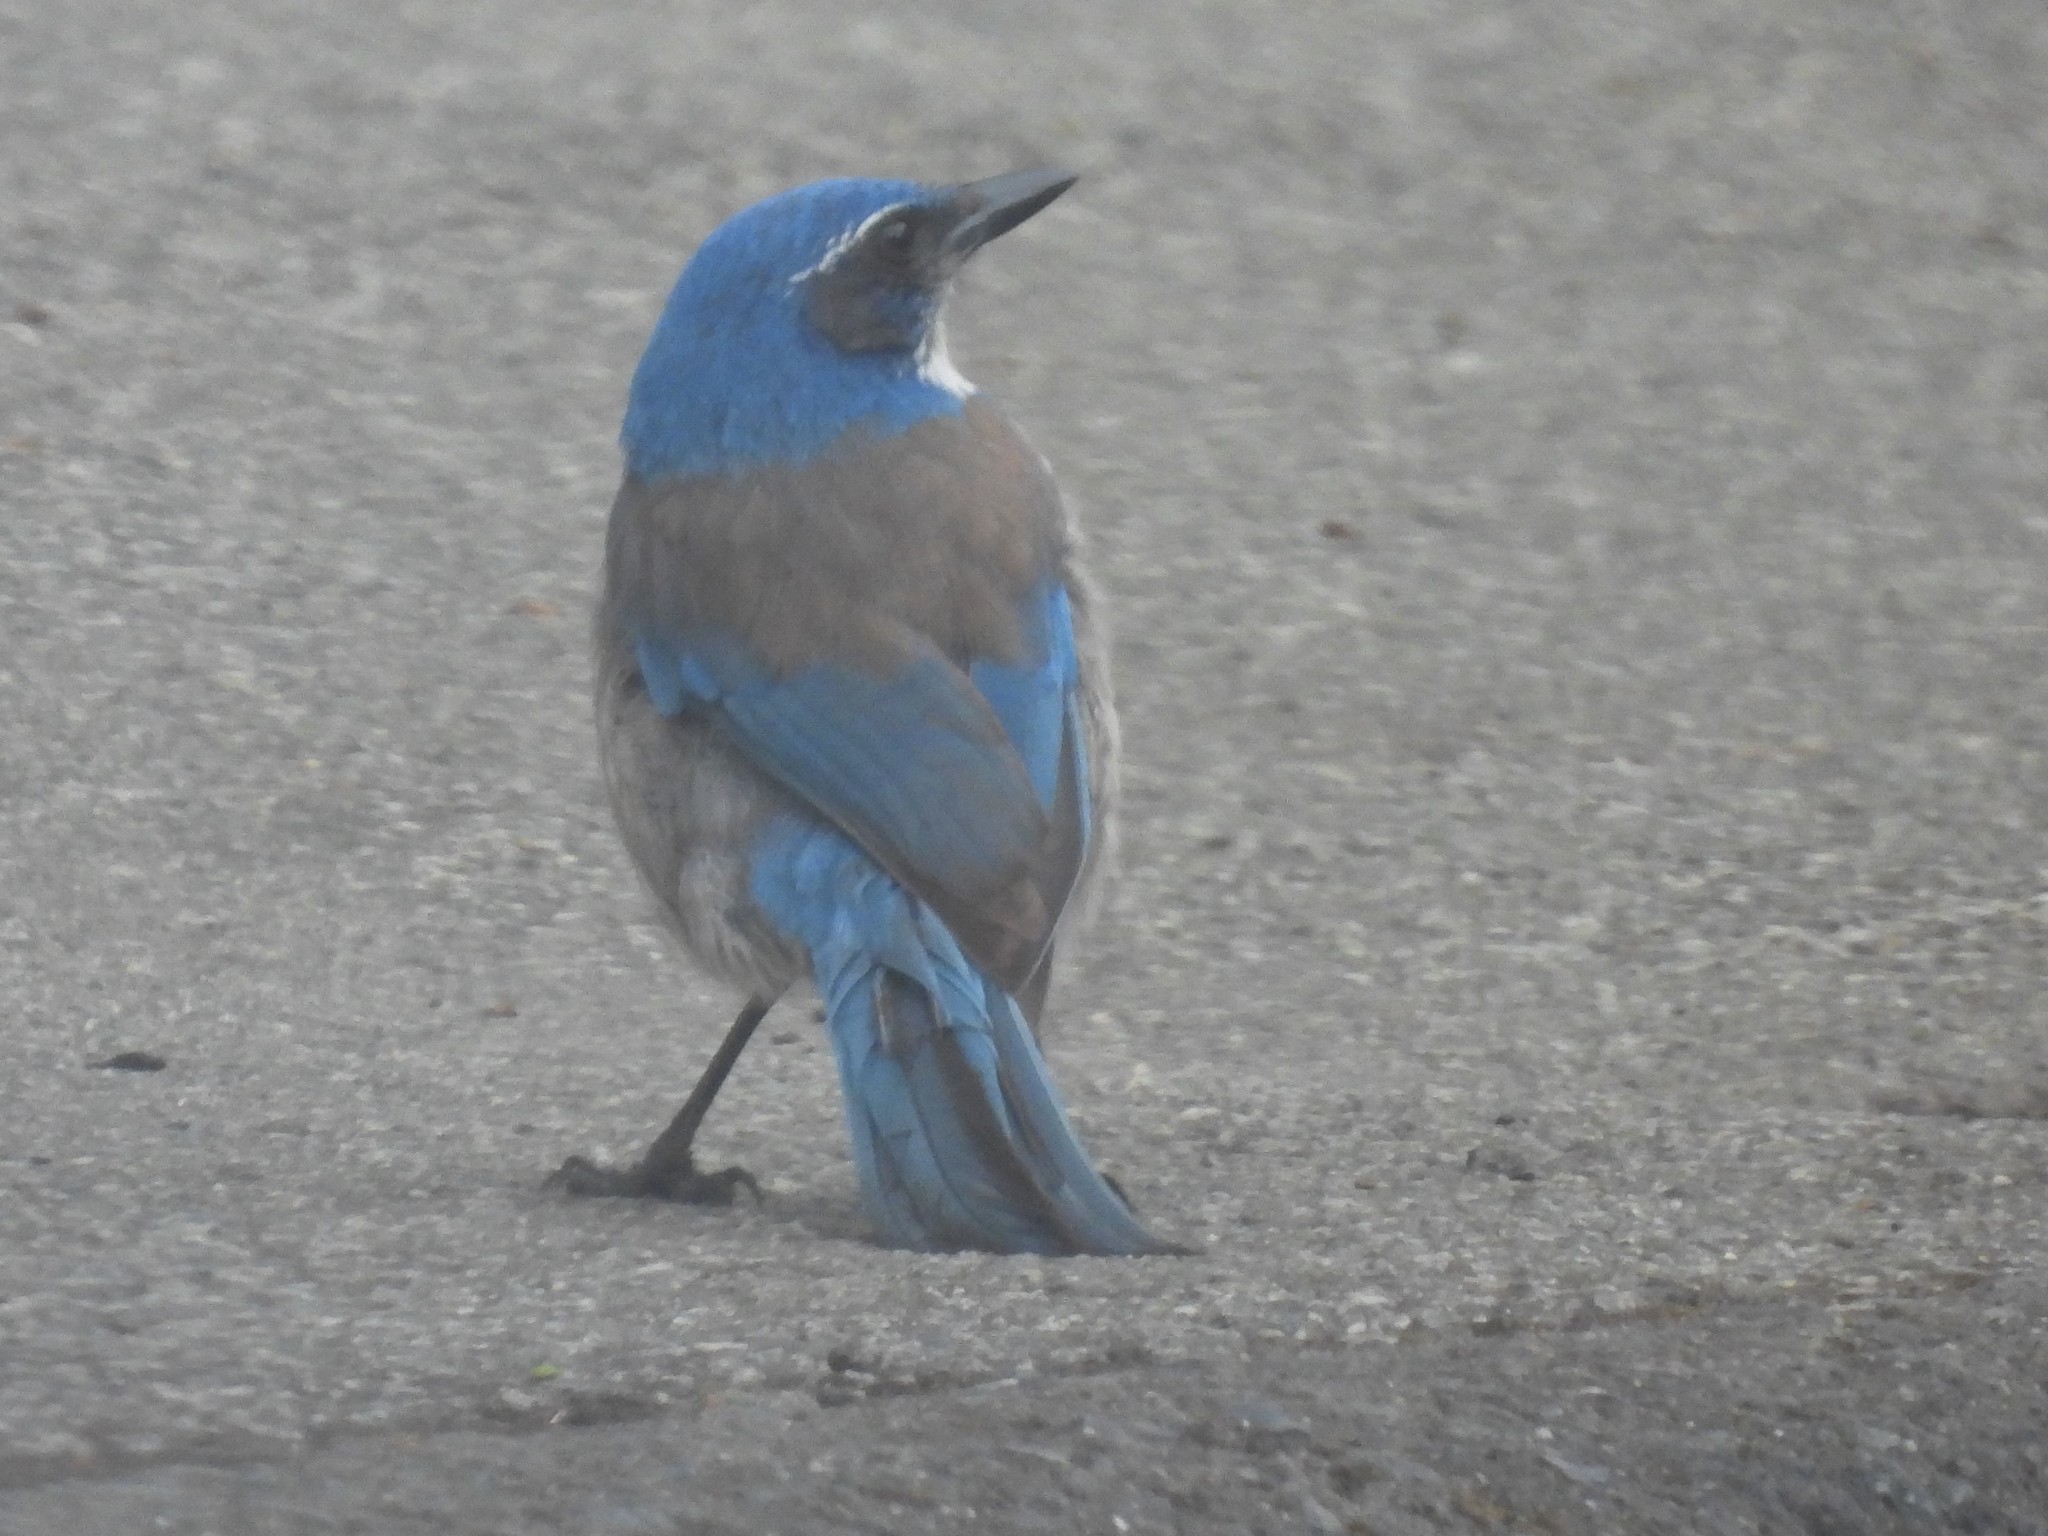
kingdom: Animalia
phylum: Chordata
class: Aves
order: Passeriformes
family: Corvidae
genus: Aphelocoma
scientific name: Aphelocoma californica
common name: California scrub-jay
